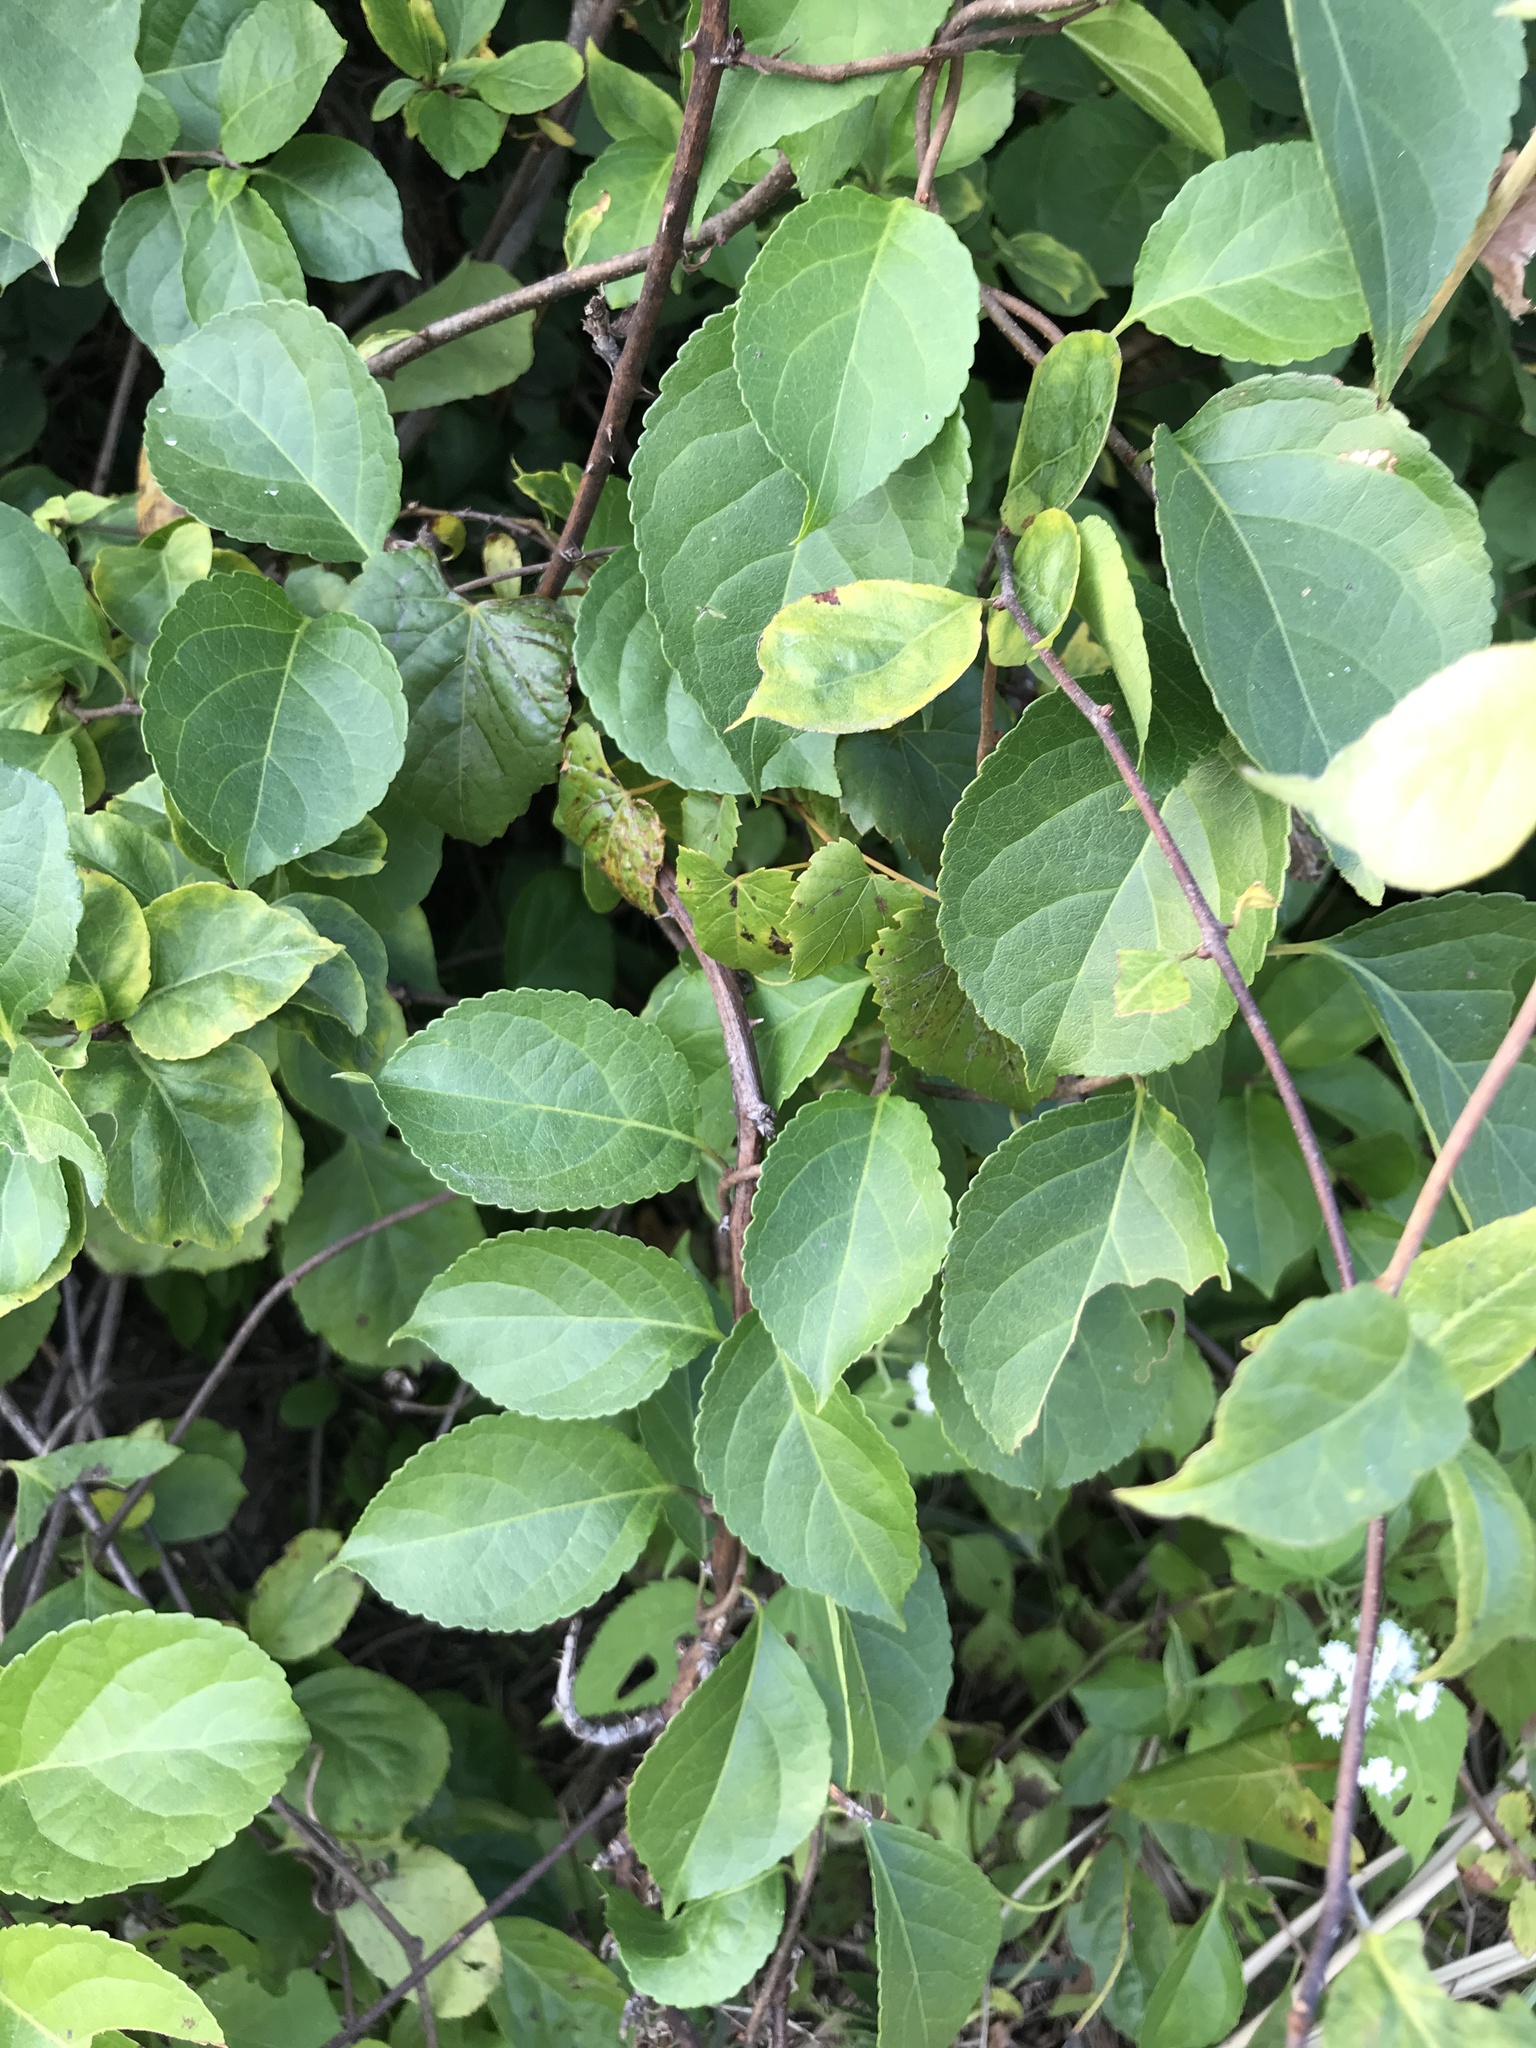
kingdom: Plantae
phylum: Tracheophyta
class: Magnoliopsida
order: Celastrales
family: Celastraceae
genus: Celastrus
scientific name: Celastrus orbiculatus
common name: Oriental bittersweet
